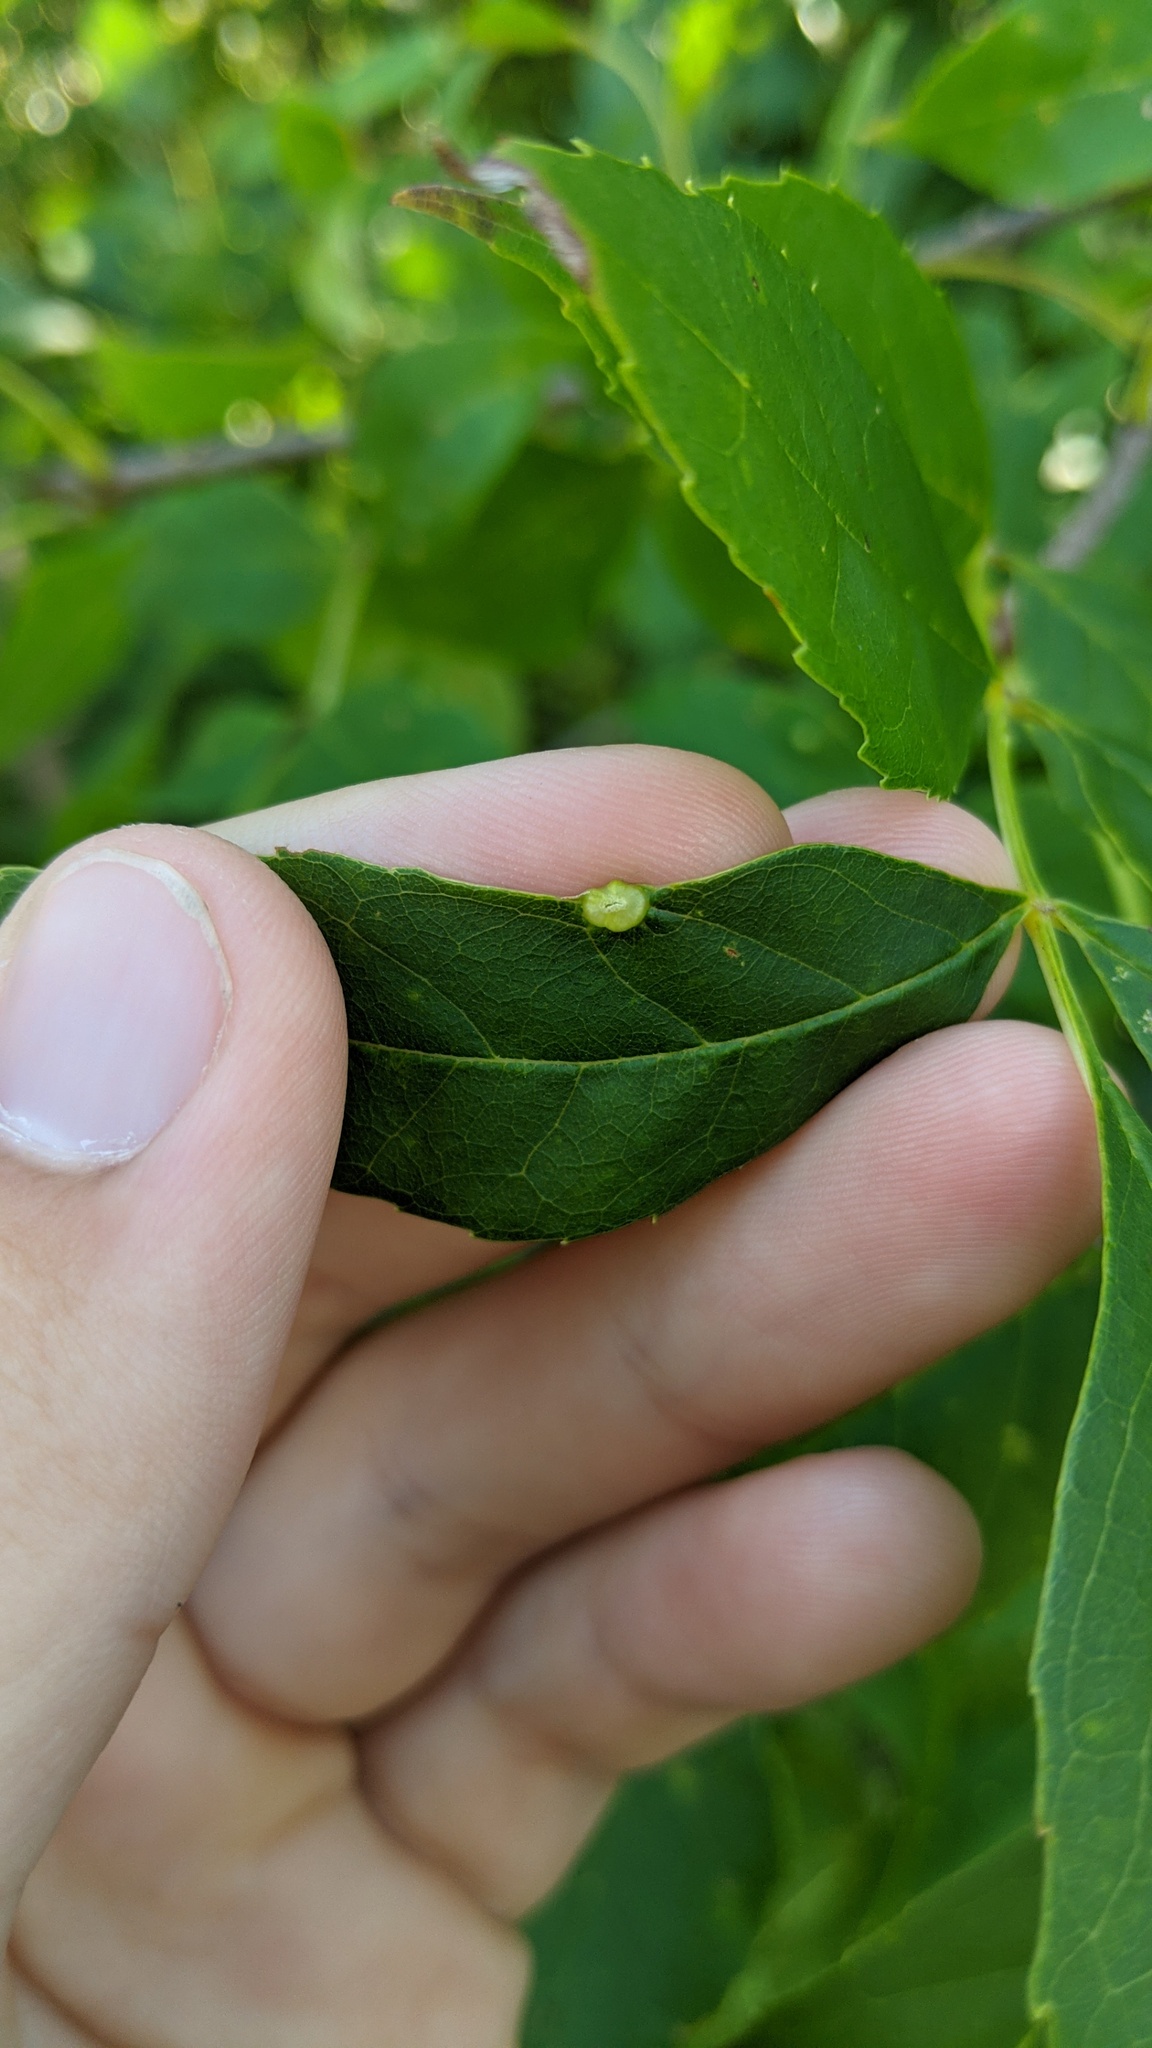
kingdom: Animalia
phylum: Arthropoda
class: Arachnida
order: Trombidiformes
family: Eriophyidae
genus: Aceria
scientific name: Aceria fraxinicola
